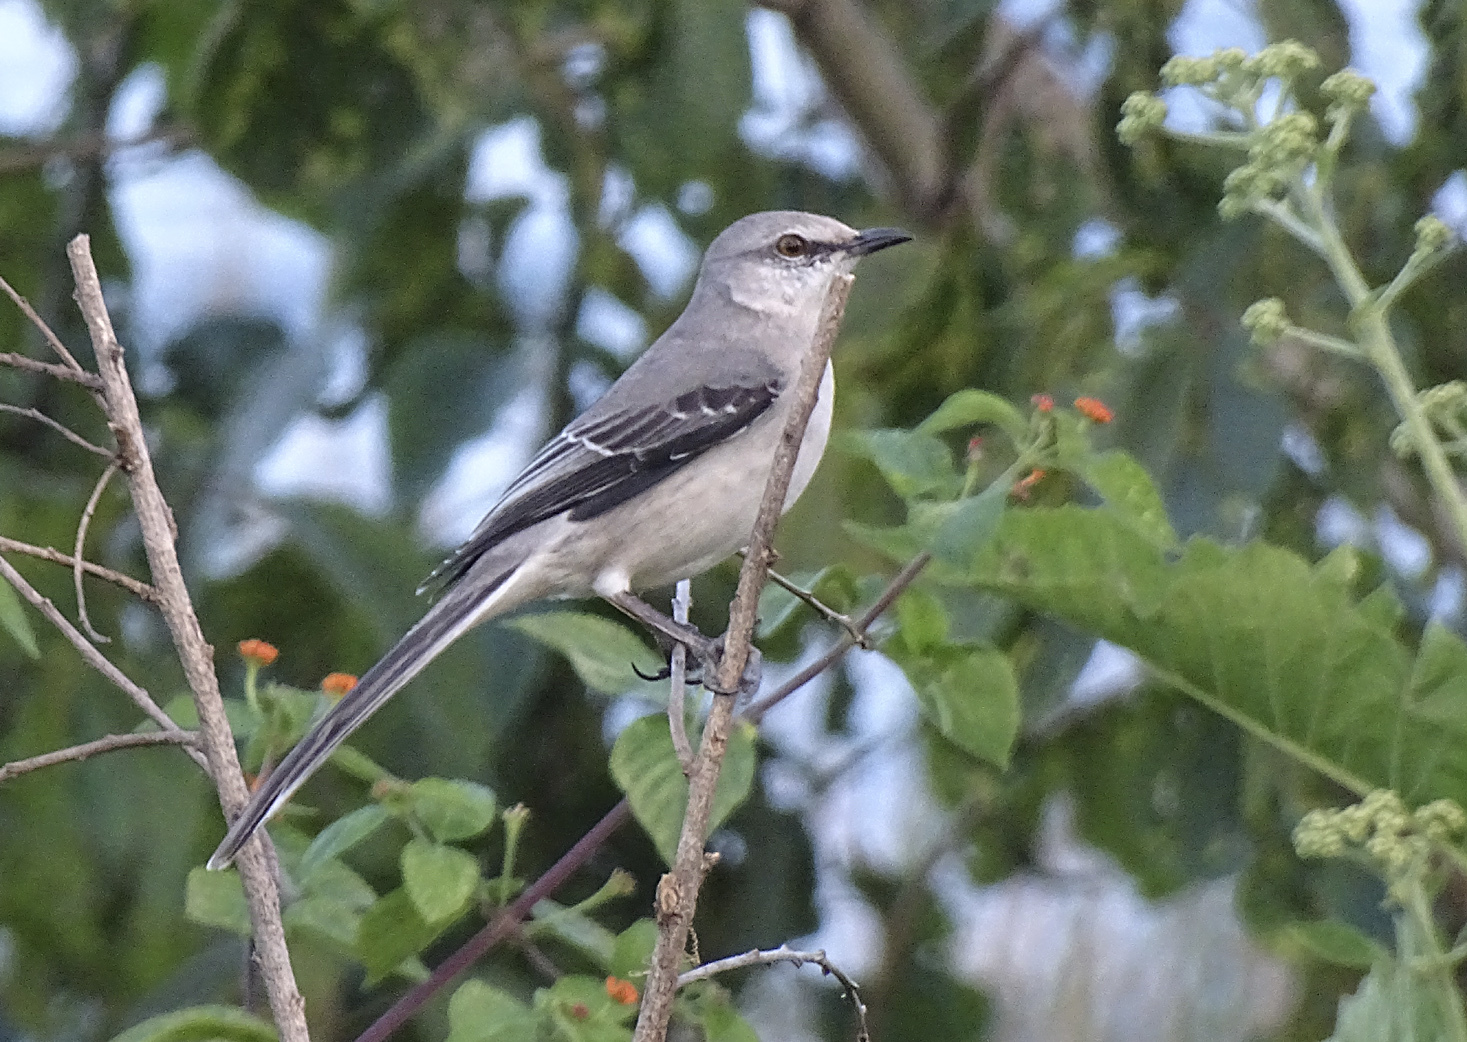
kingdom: Animalia
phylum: Chordata
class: Aves
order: Passeriformes
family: Mimidae
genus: Mimus
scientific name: Mimus gilvus
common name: Tropical mockingbird
